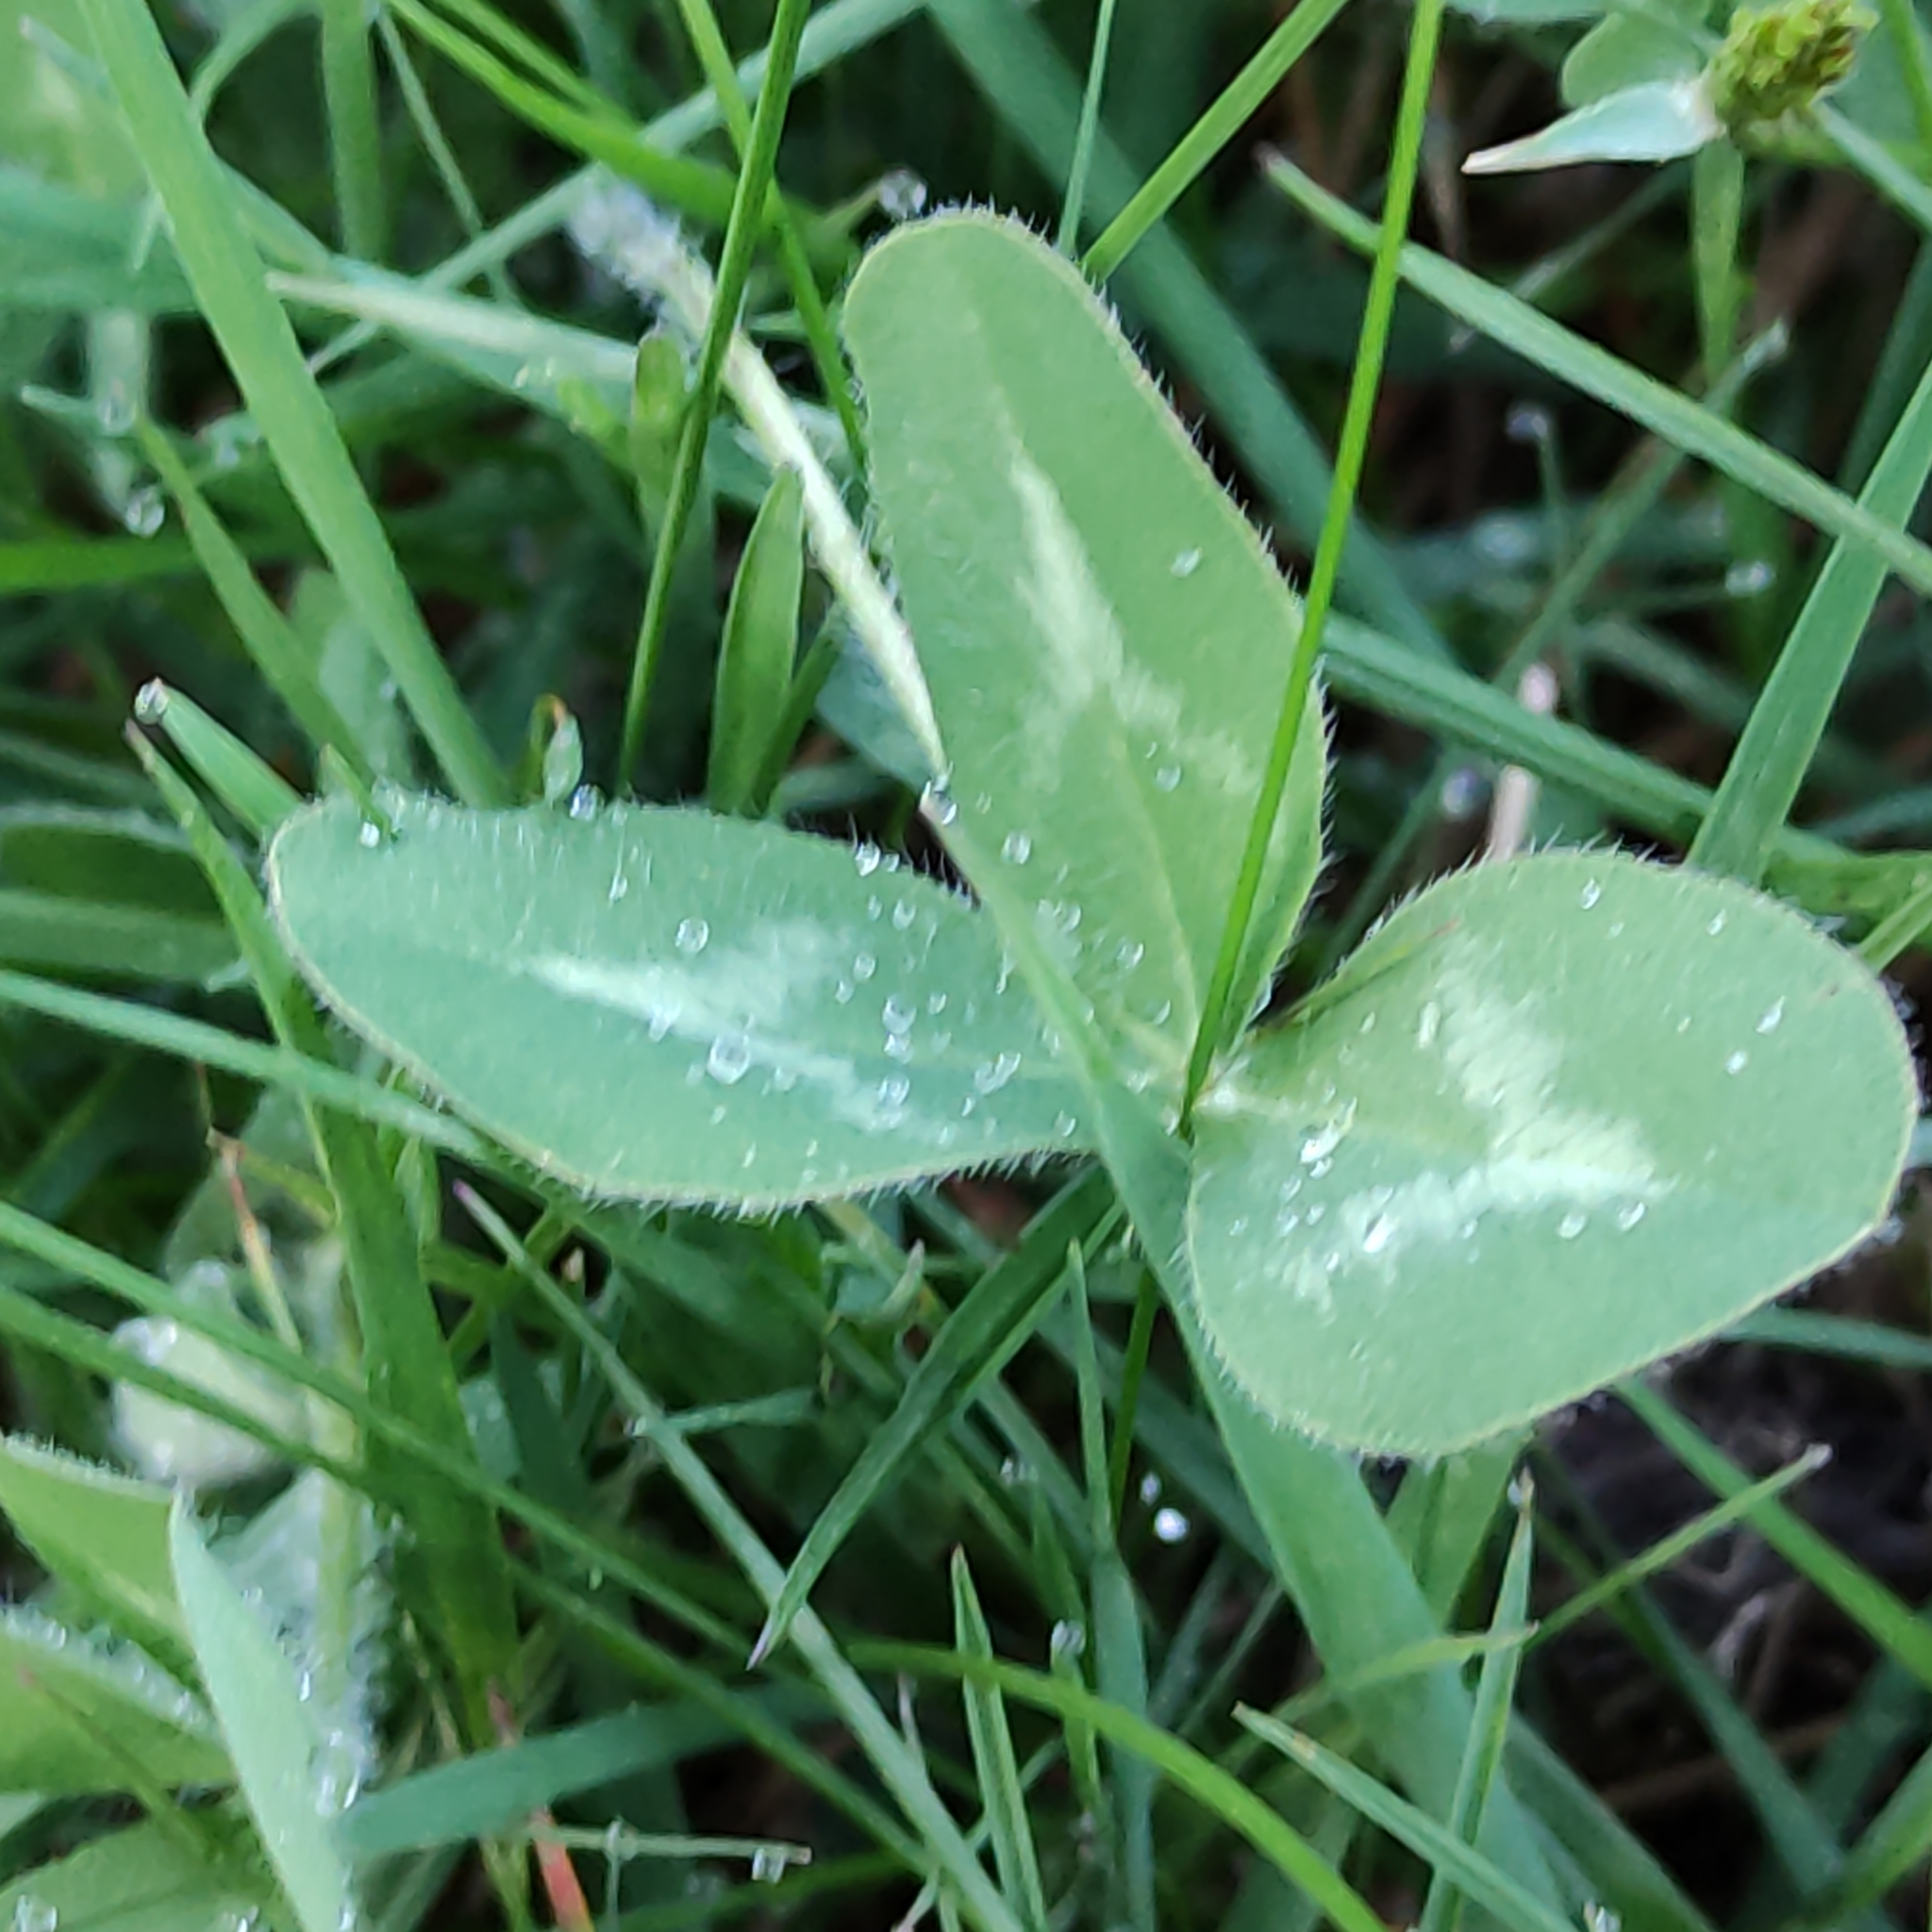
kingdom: Plantae
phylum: Tracheophyta
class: Magnoliopsida
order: Fabales
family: Fabaceae
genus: Trifolium
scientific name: Trifolium pratense
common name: Red clover
